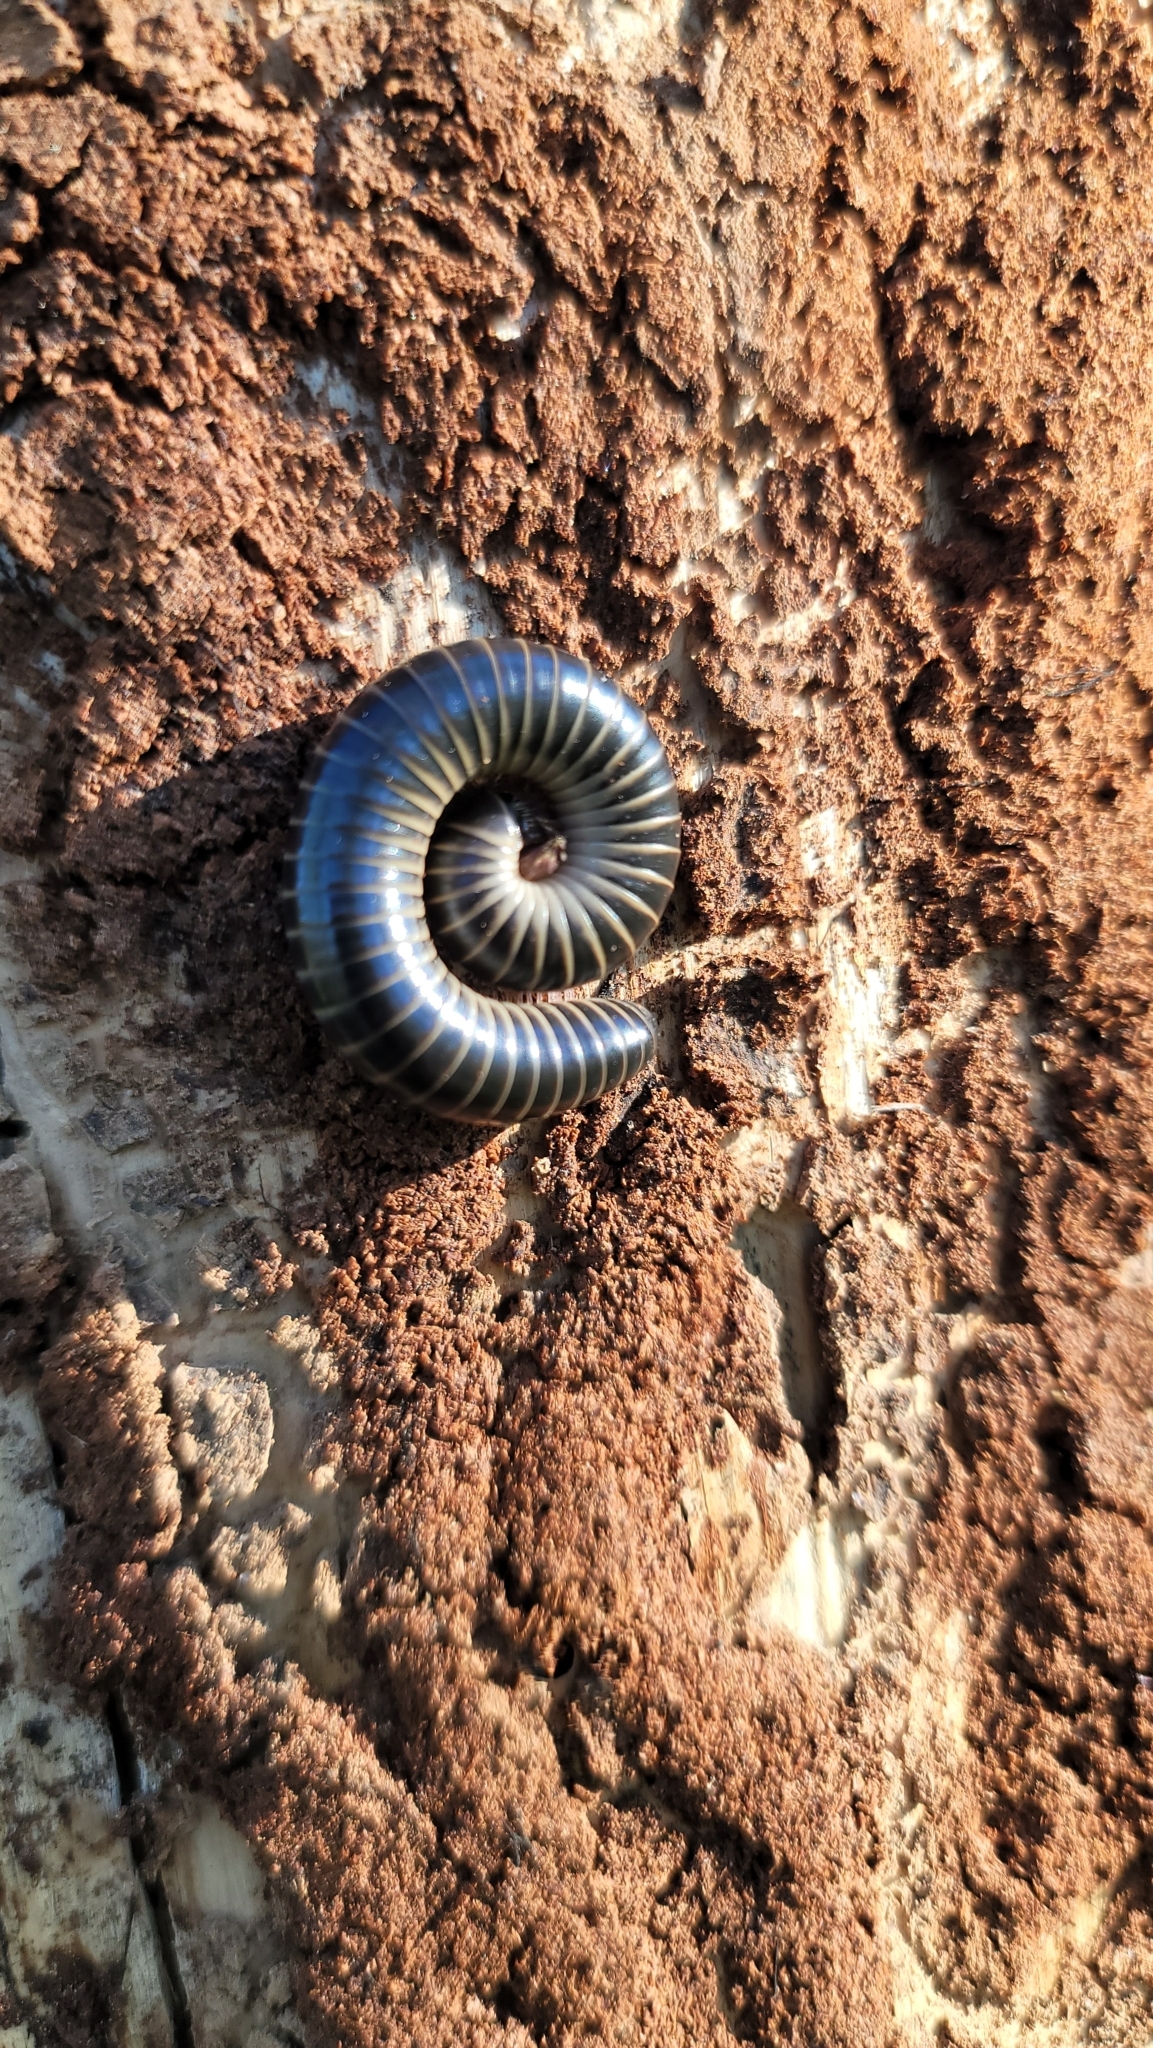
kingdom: Animalia
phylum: Arthropoda
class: Diplopoda
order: Spirobolida
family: Spirobolidae
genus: Chicobolus
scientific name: Chicobolus spinigerus
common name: Florida ivory millipede
